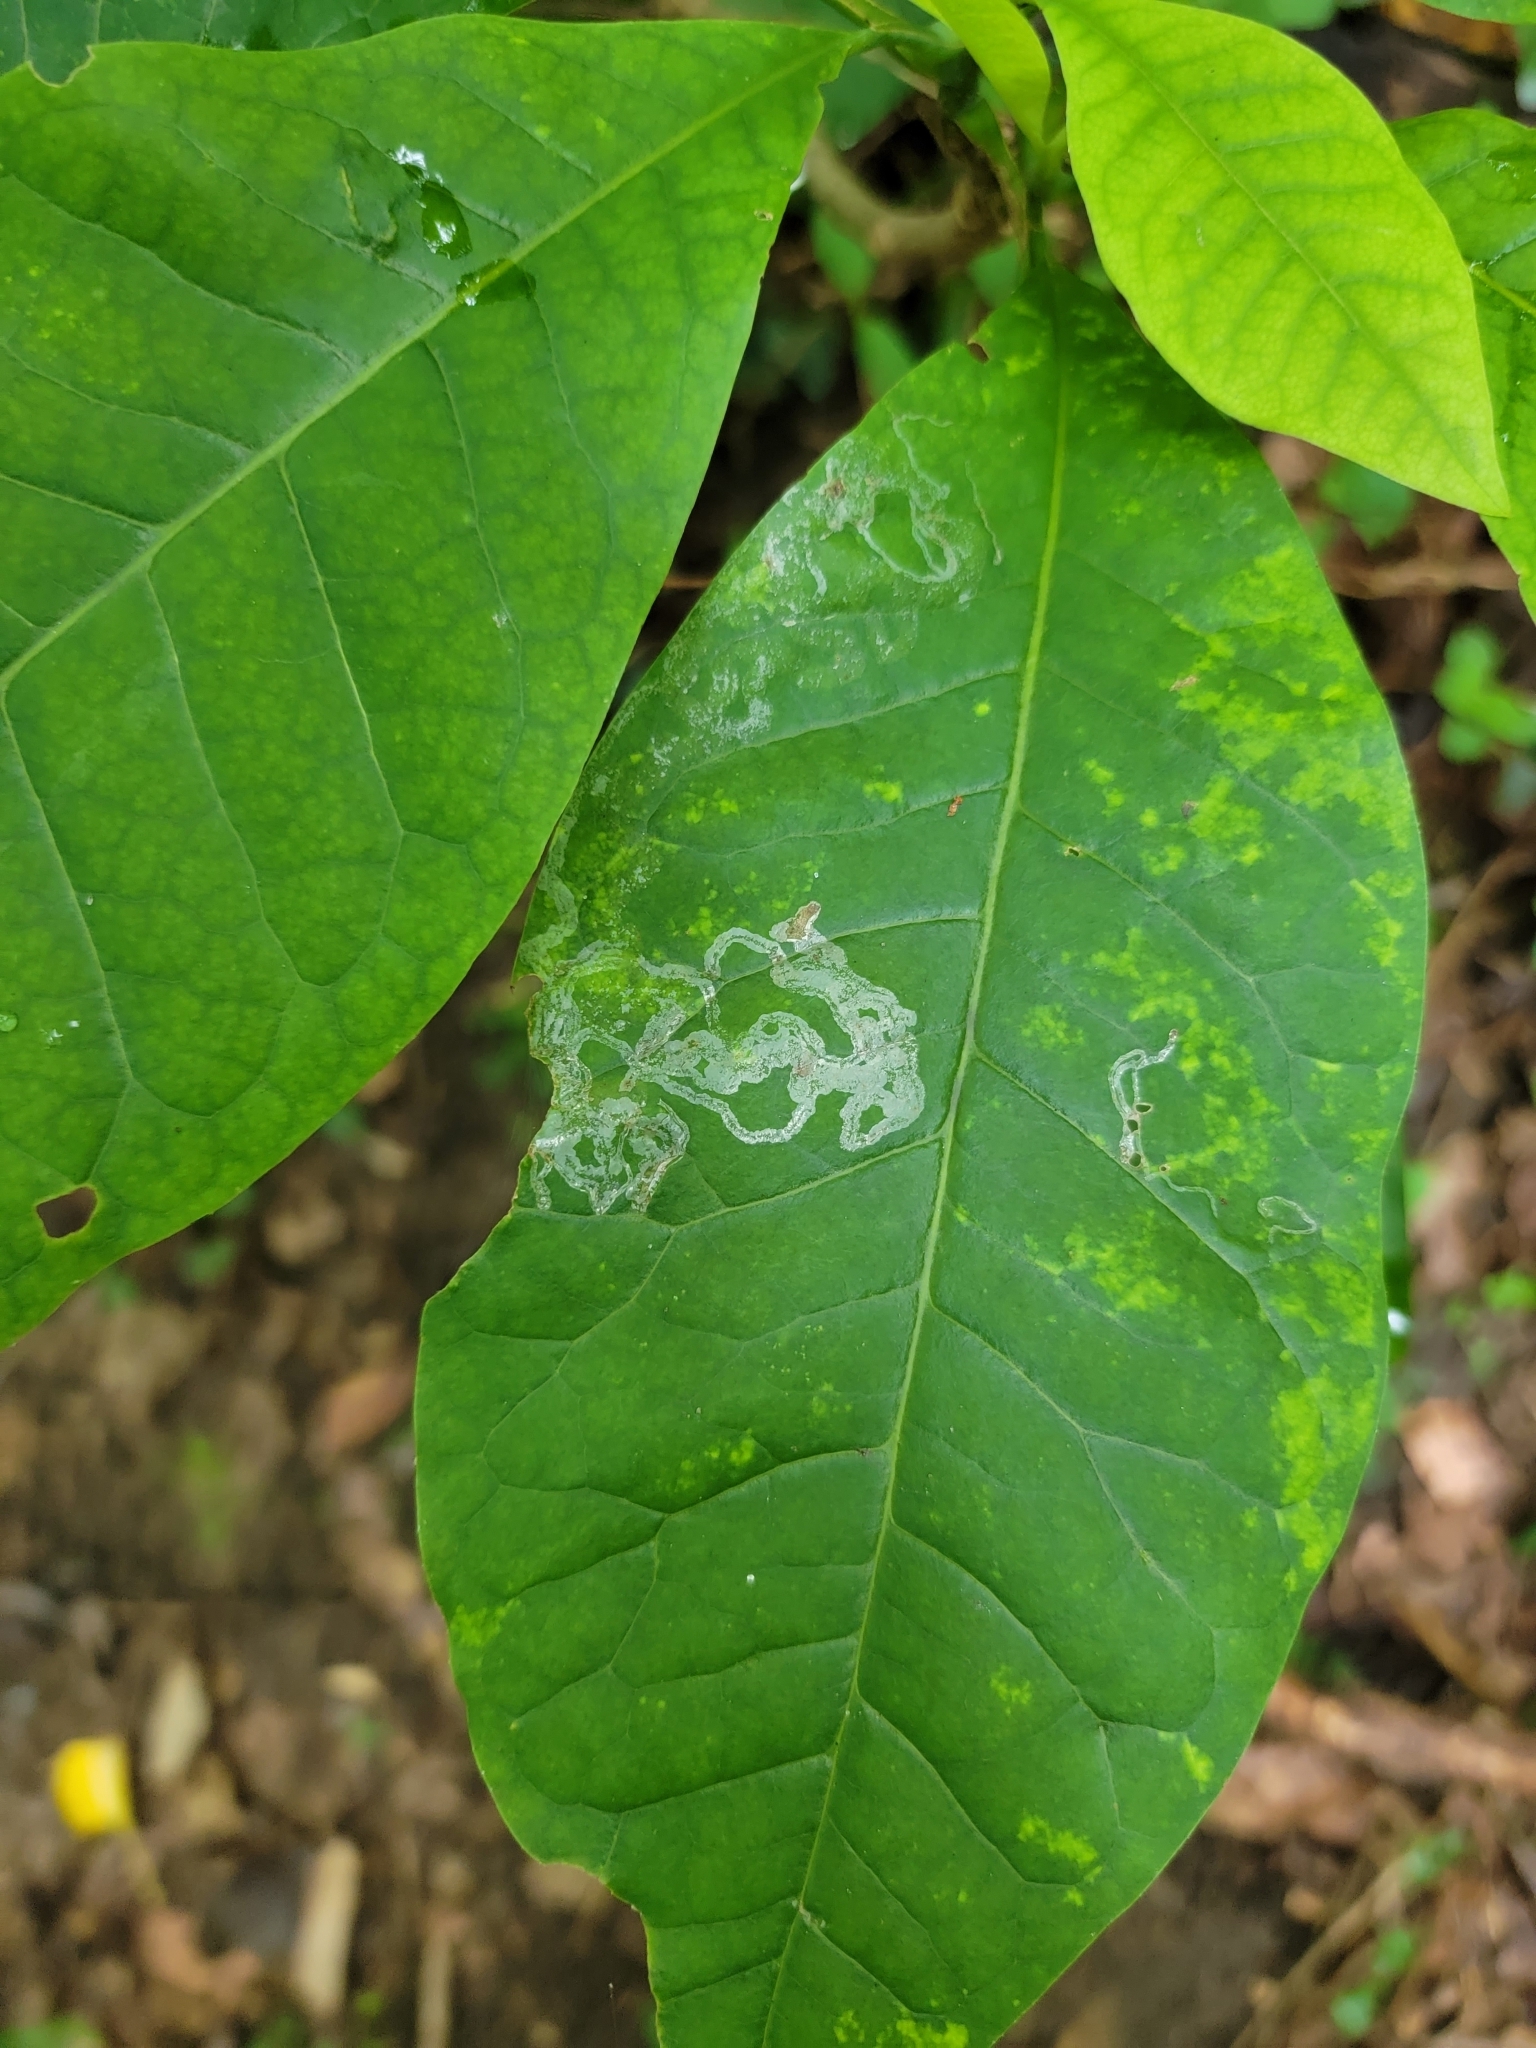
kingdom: Animalia
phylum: Arthropoda
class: Insecta
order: Lepidoptera
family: Gracillariidae
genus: Phyllocnistis
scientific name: Phyllocnistis liriodendronella
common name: Tulip tree leaf miner
